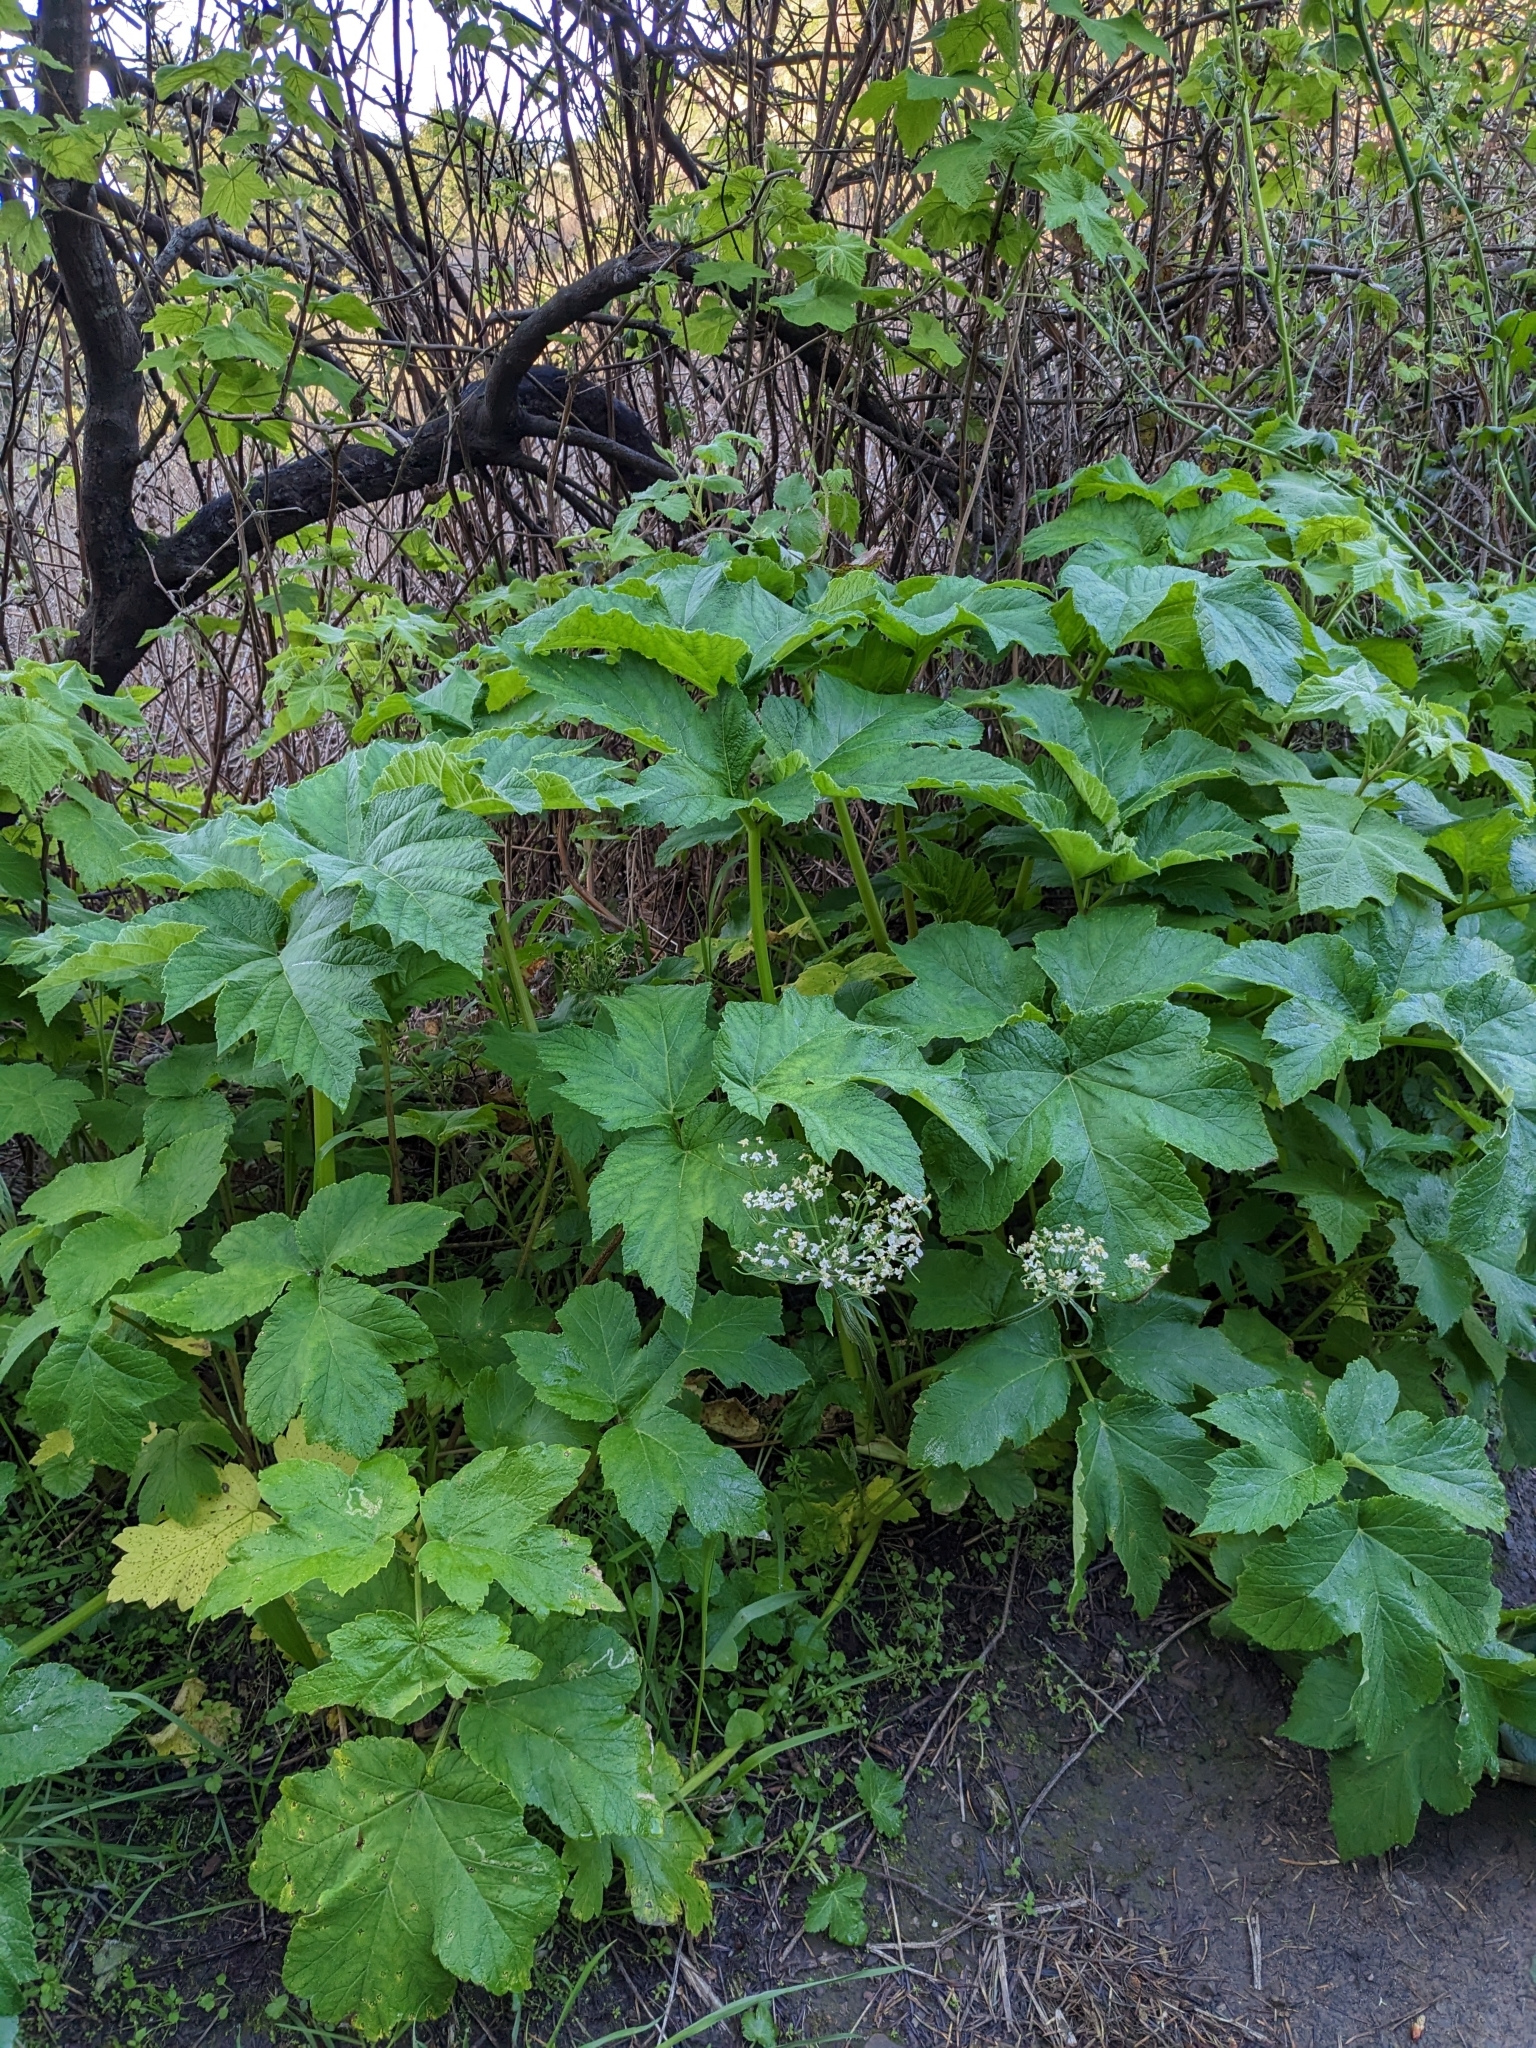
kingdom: Plantae
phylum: Tracheophyta
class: Magnoliopsida
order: Apiales
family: Apiaceae
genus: Heracleum
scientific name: Heracleum maximum
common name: American cow parsnip
